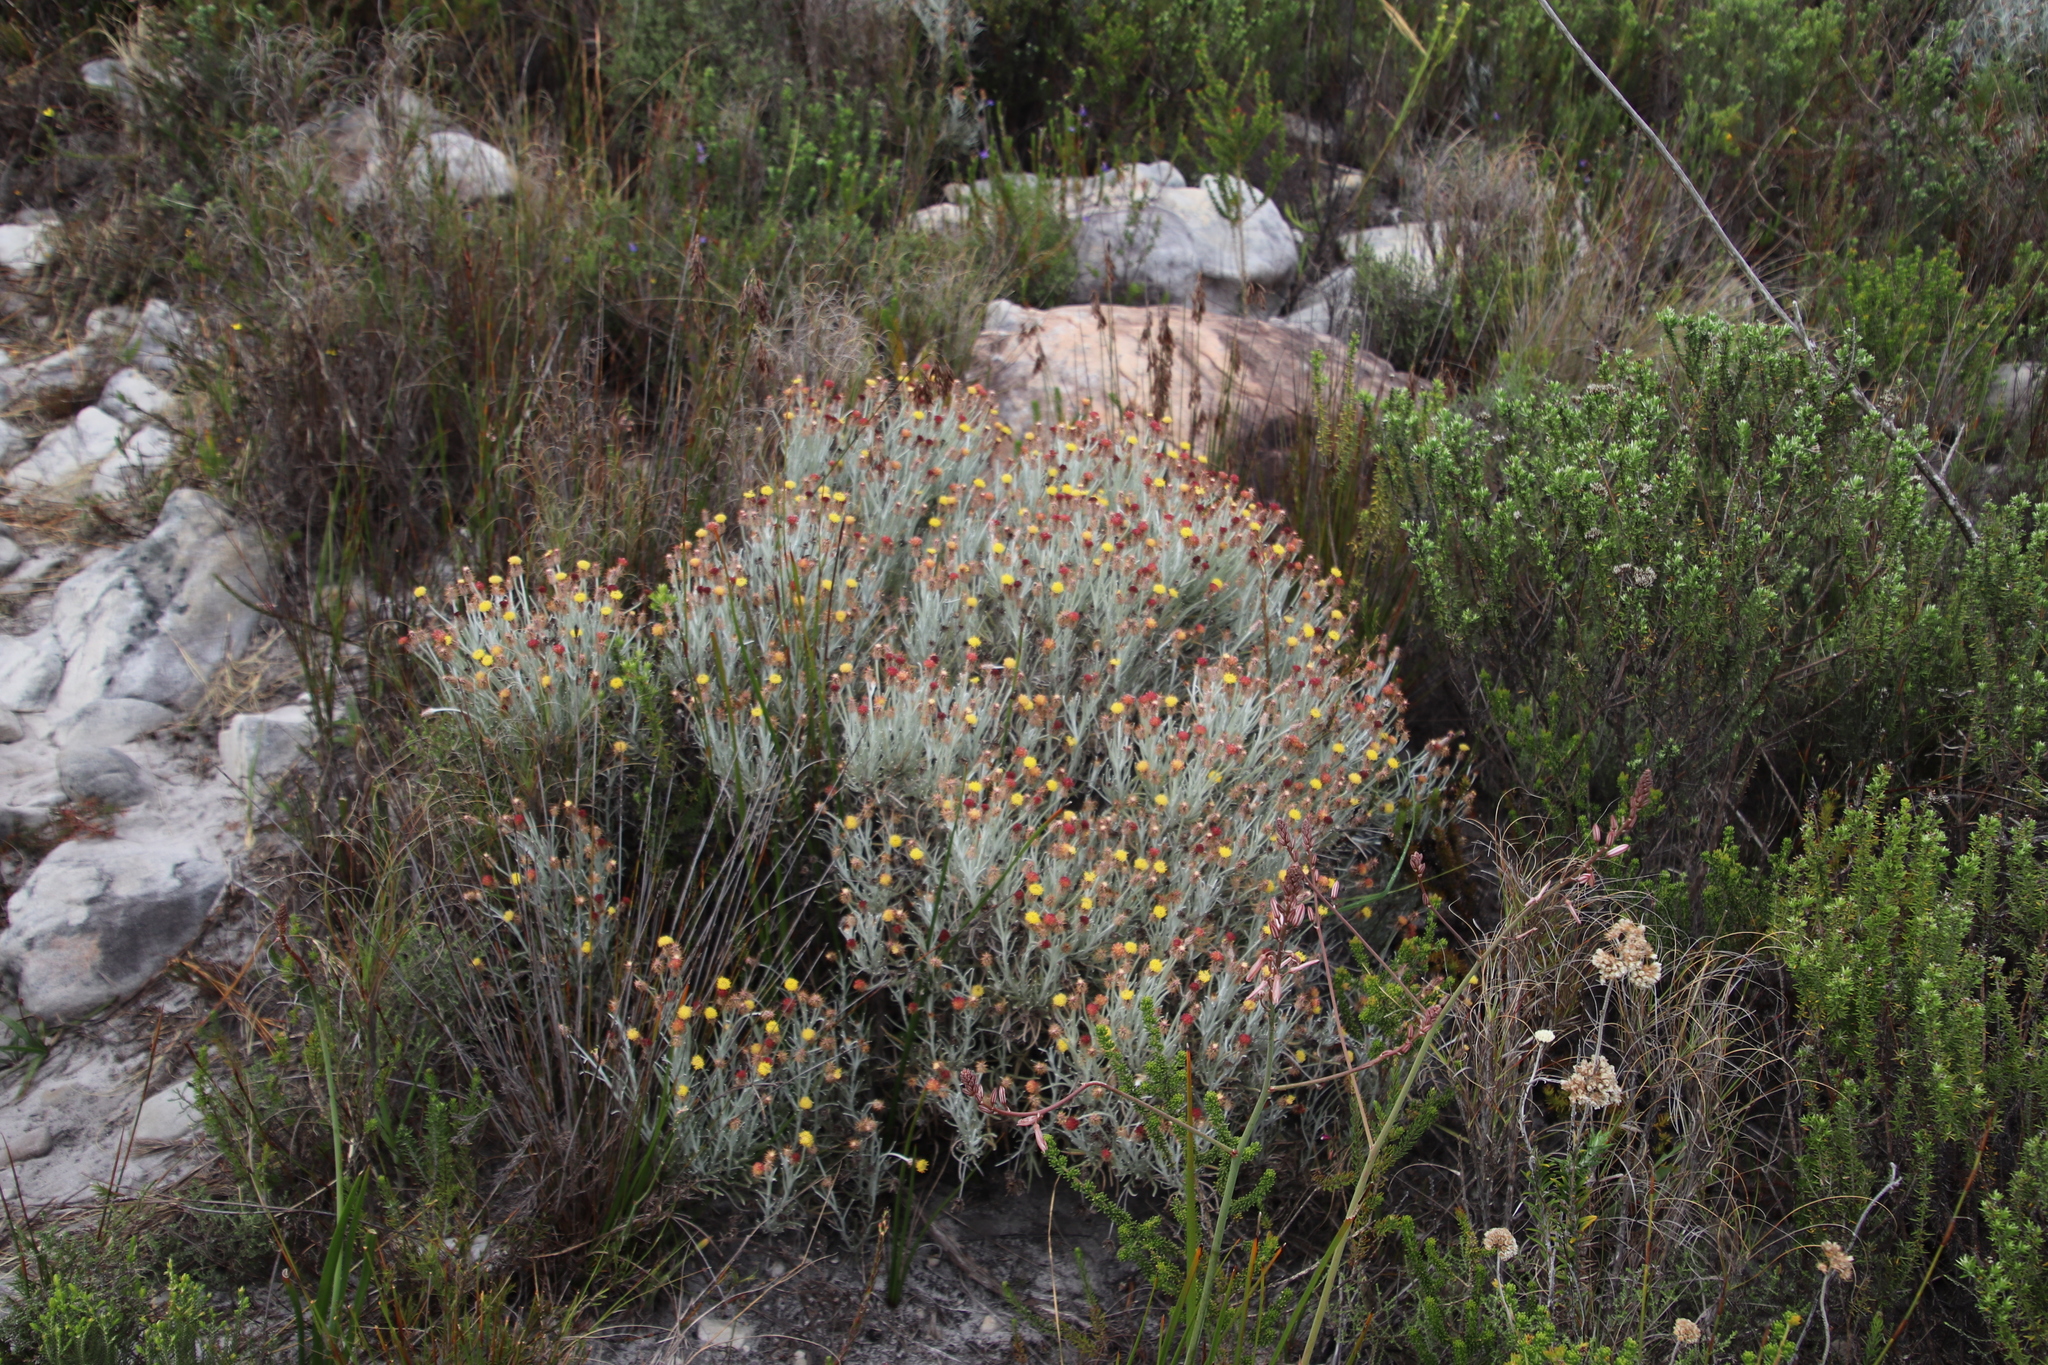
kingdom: Plantae
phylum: Tracheophyta
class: Magnoliopsida
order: Asterales
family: Asteraceae
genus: Syncarpha
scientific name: Syncarpha gnaphaloides
